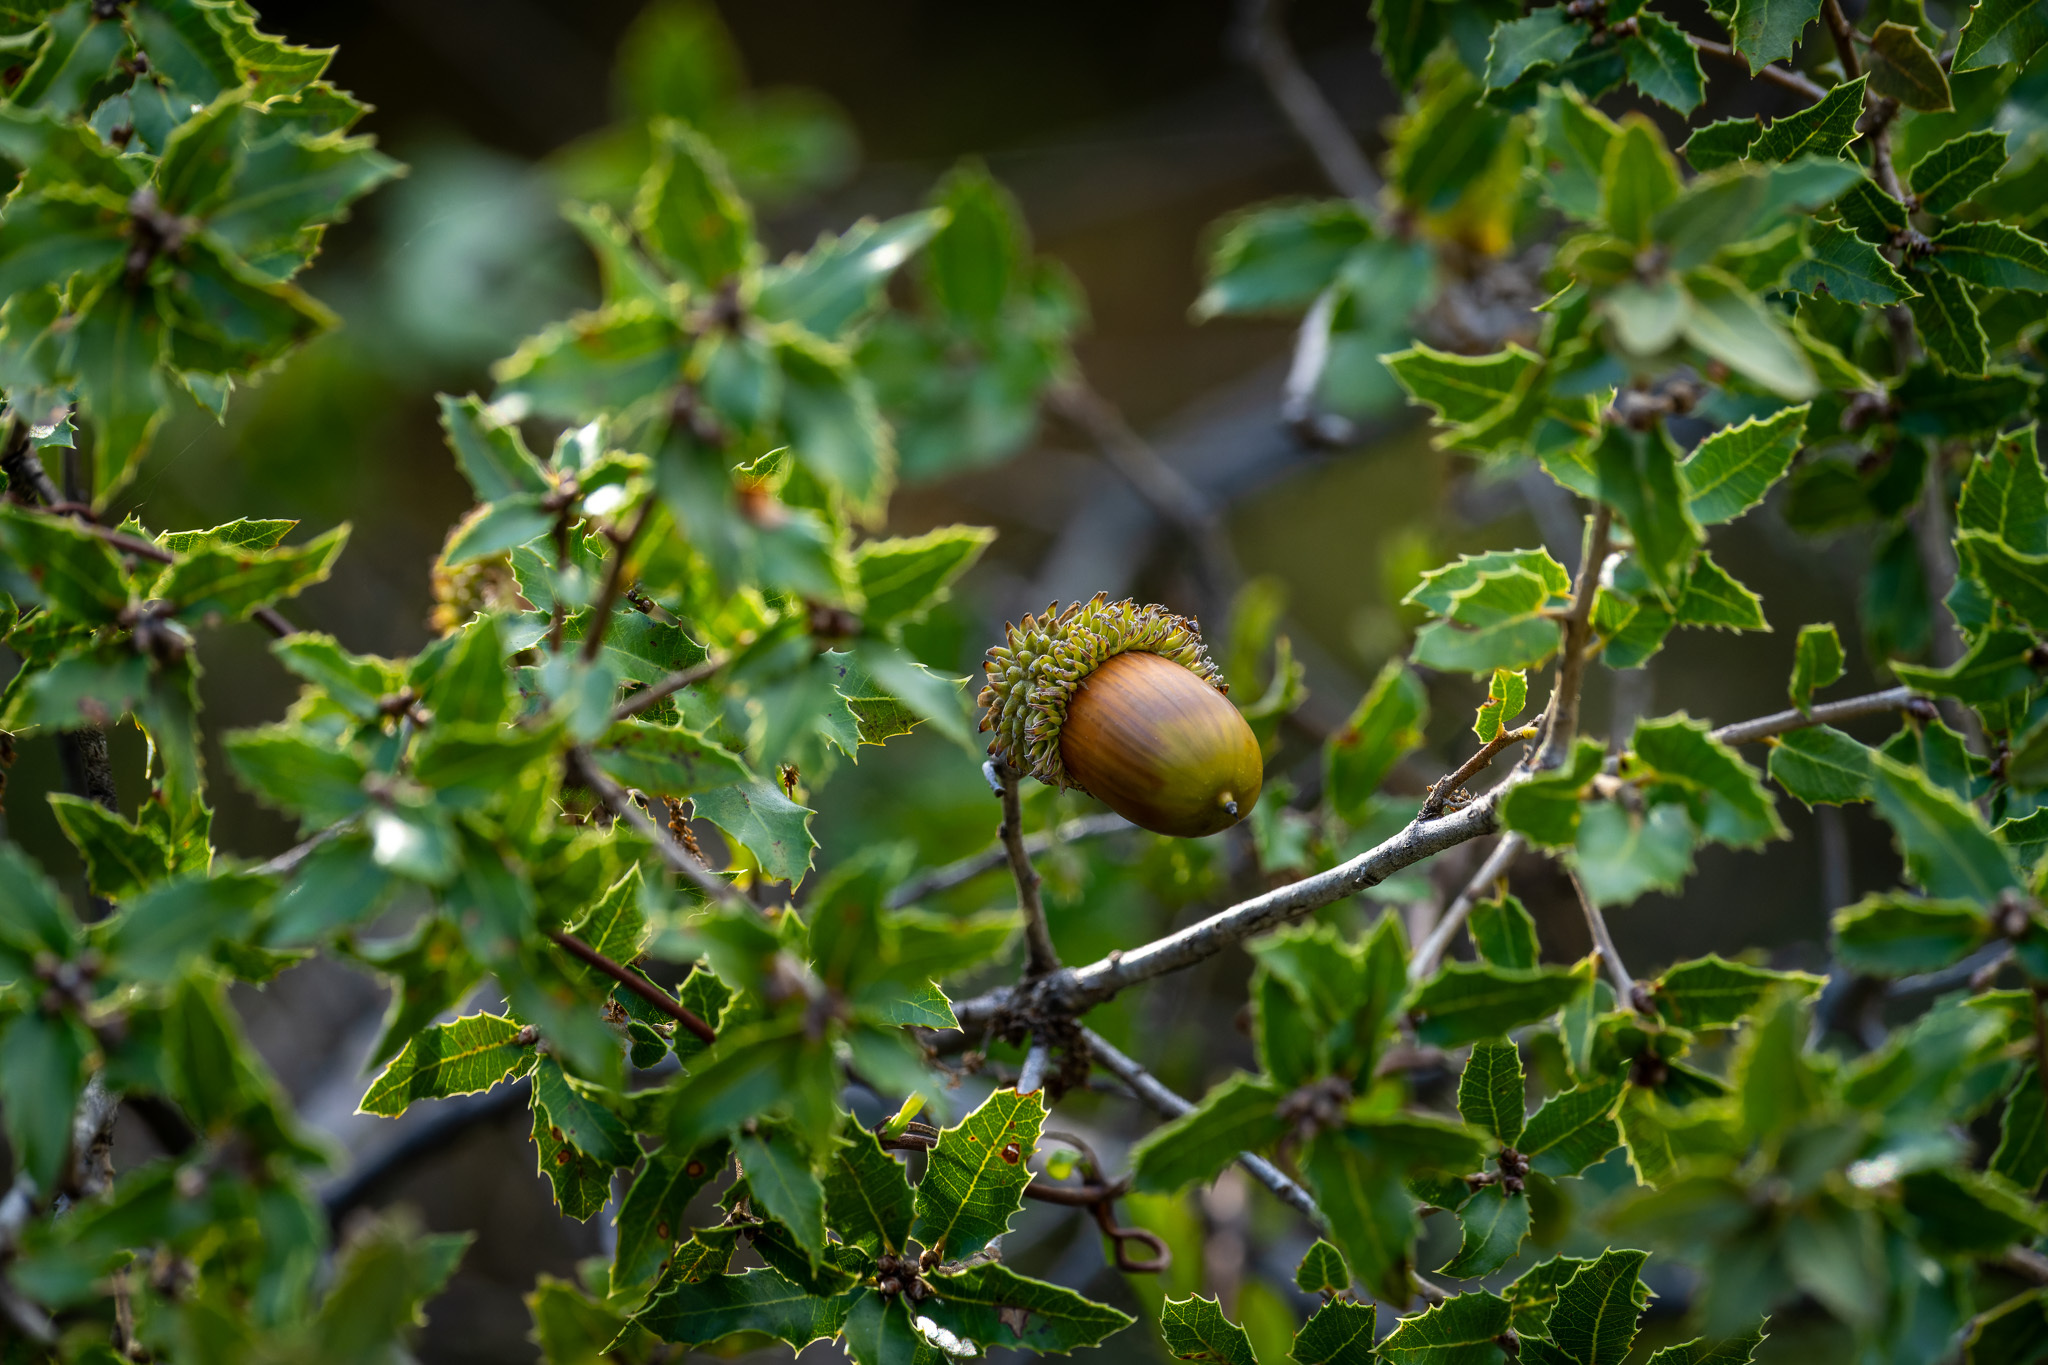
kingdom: Plantae
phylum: Tracheophyta
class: Magnoliopsida
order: Fagales
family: Fagaceae
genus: Quercus
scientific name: Quercus coccifera
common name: Kermes oak
